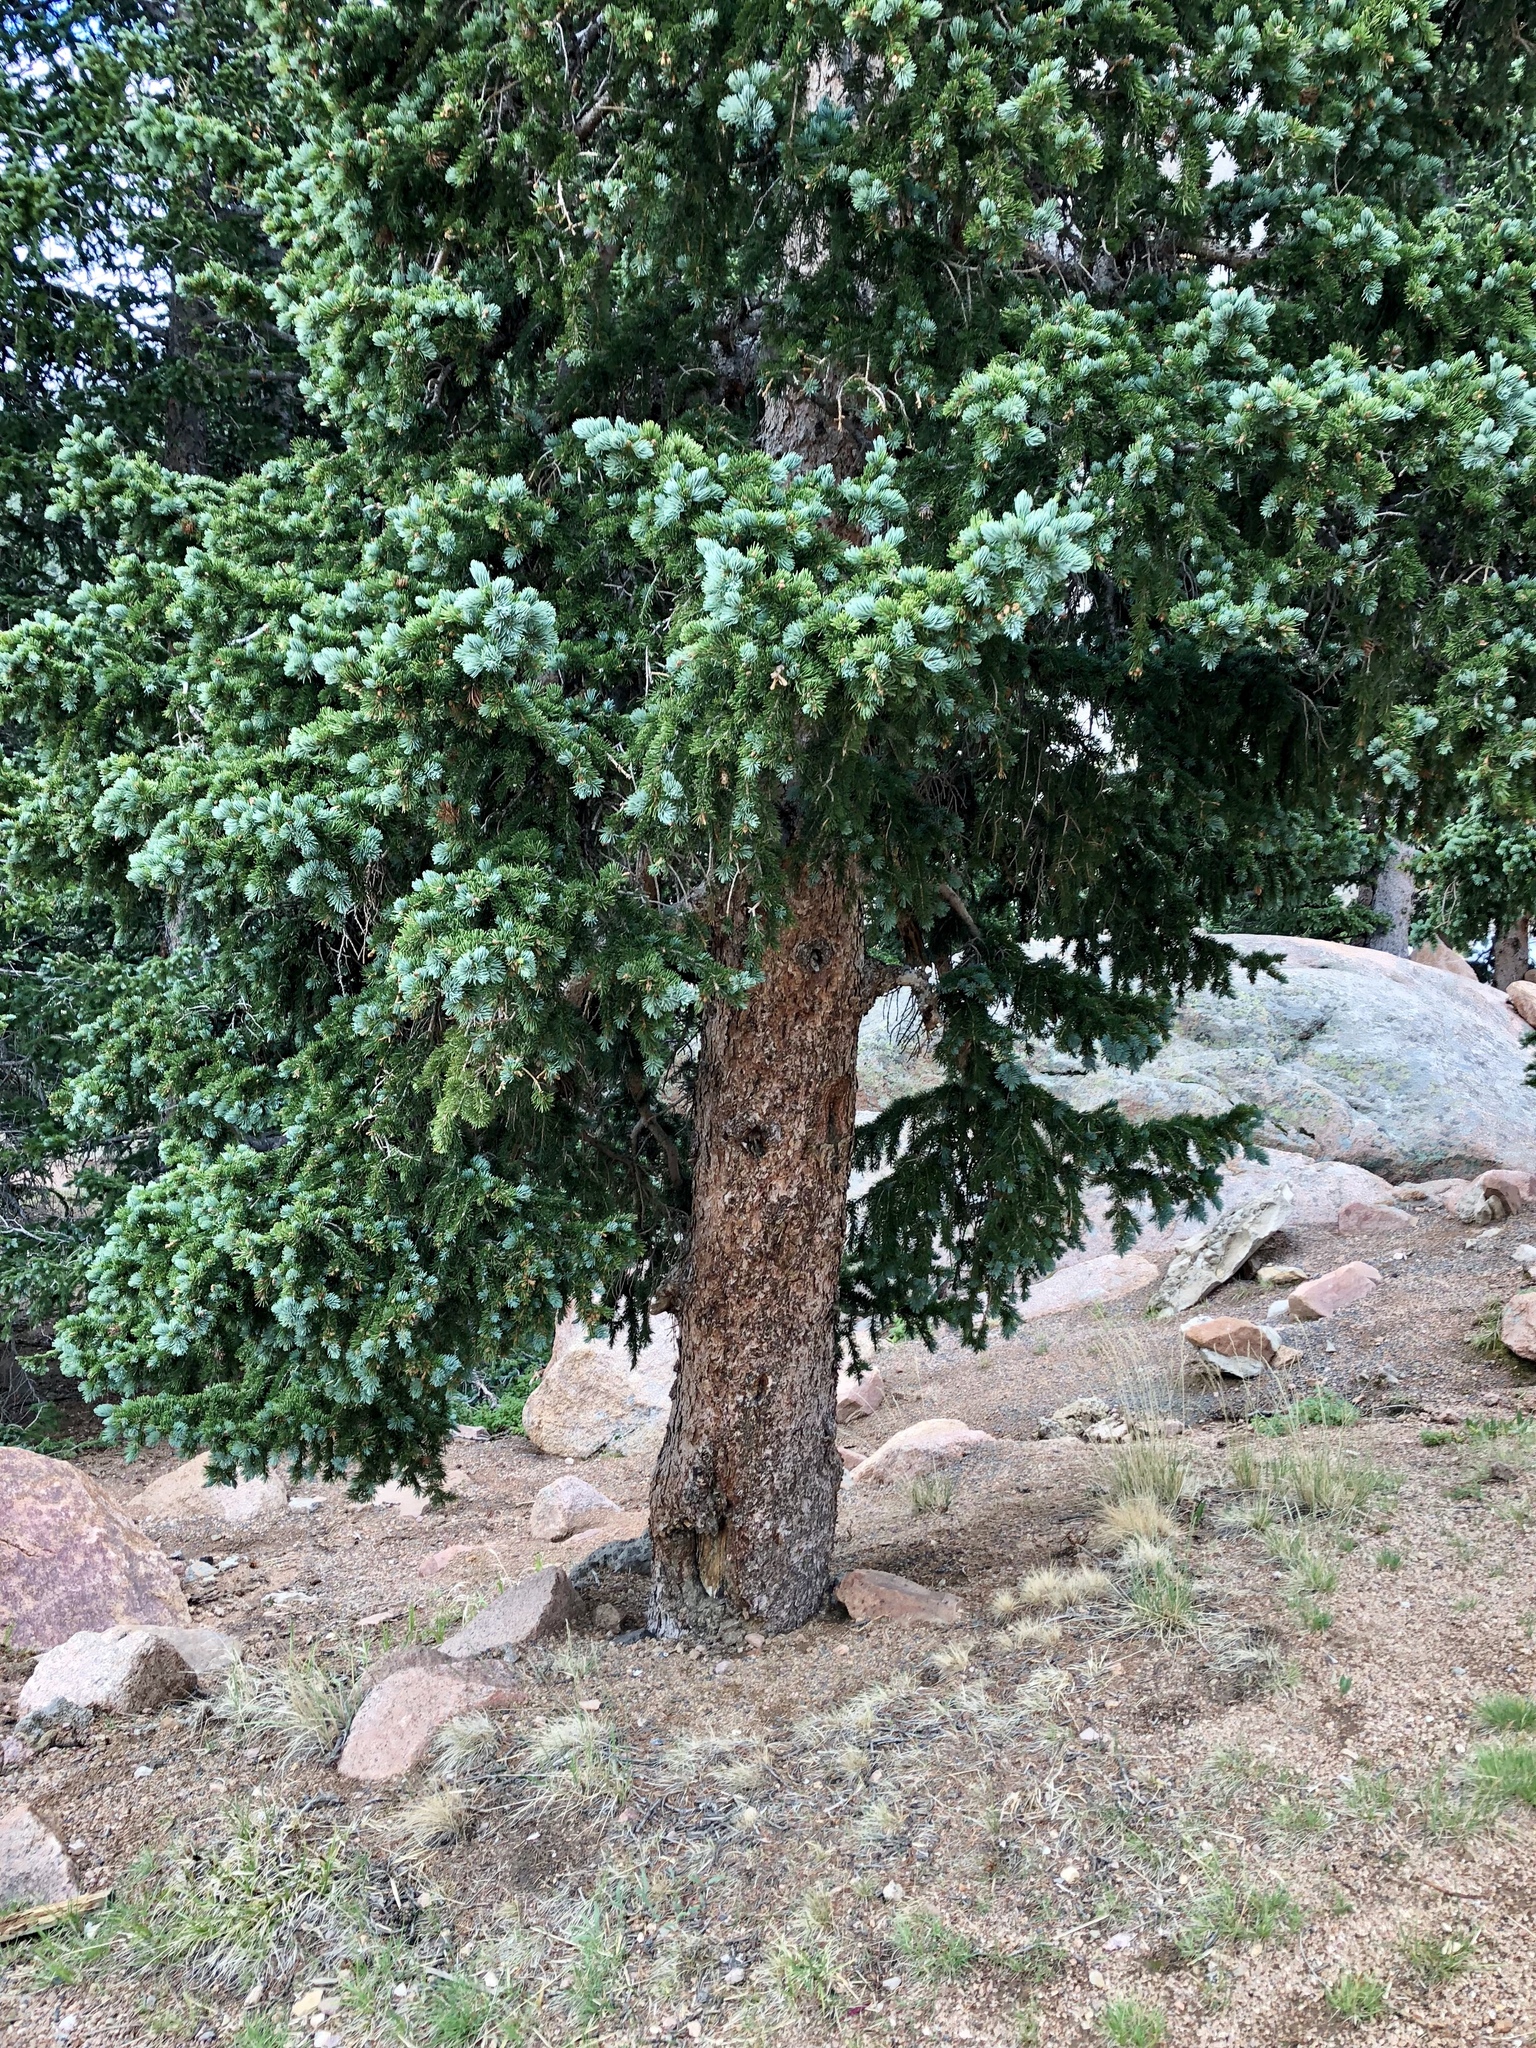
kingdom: Plantae
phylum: Tracheophyta
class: Pinopsida
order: Pinales
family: Pinaceae
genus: Picea
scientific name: Picea engelmannii
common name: Engelmann spruce
